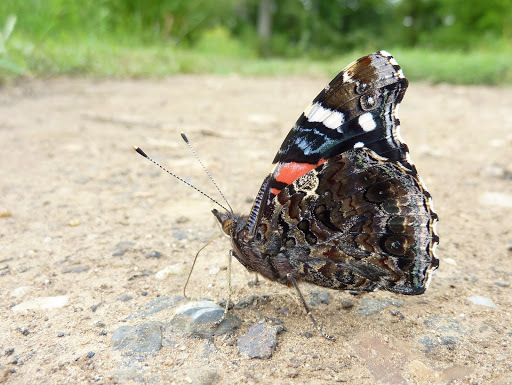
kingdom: Animalia
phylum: Arthropoda
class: Insecta
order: Lepidoptera
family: Nymphalidae
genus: Vanessa
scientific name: Vanessa atalanta
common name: Red admiral
